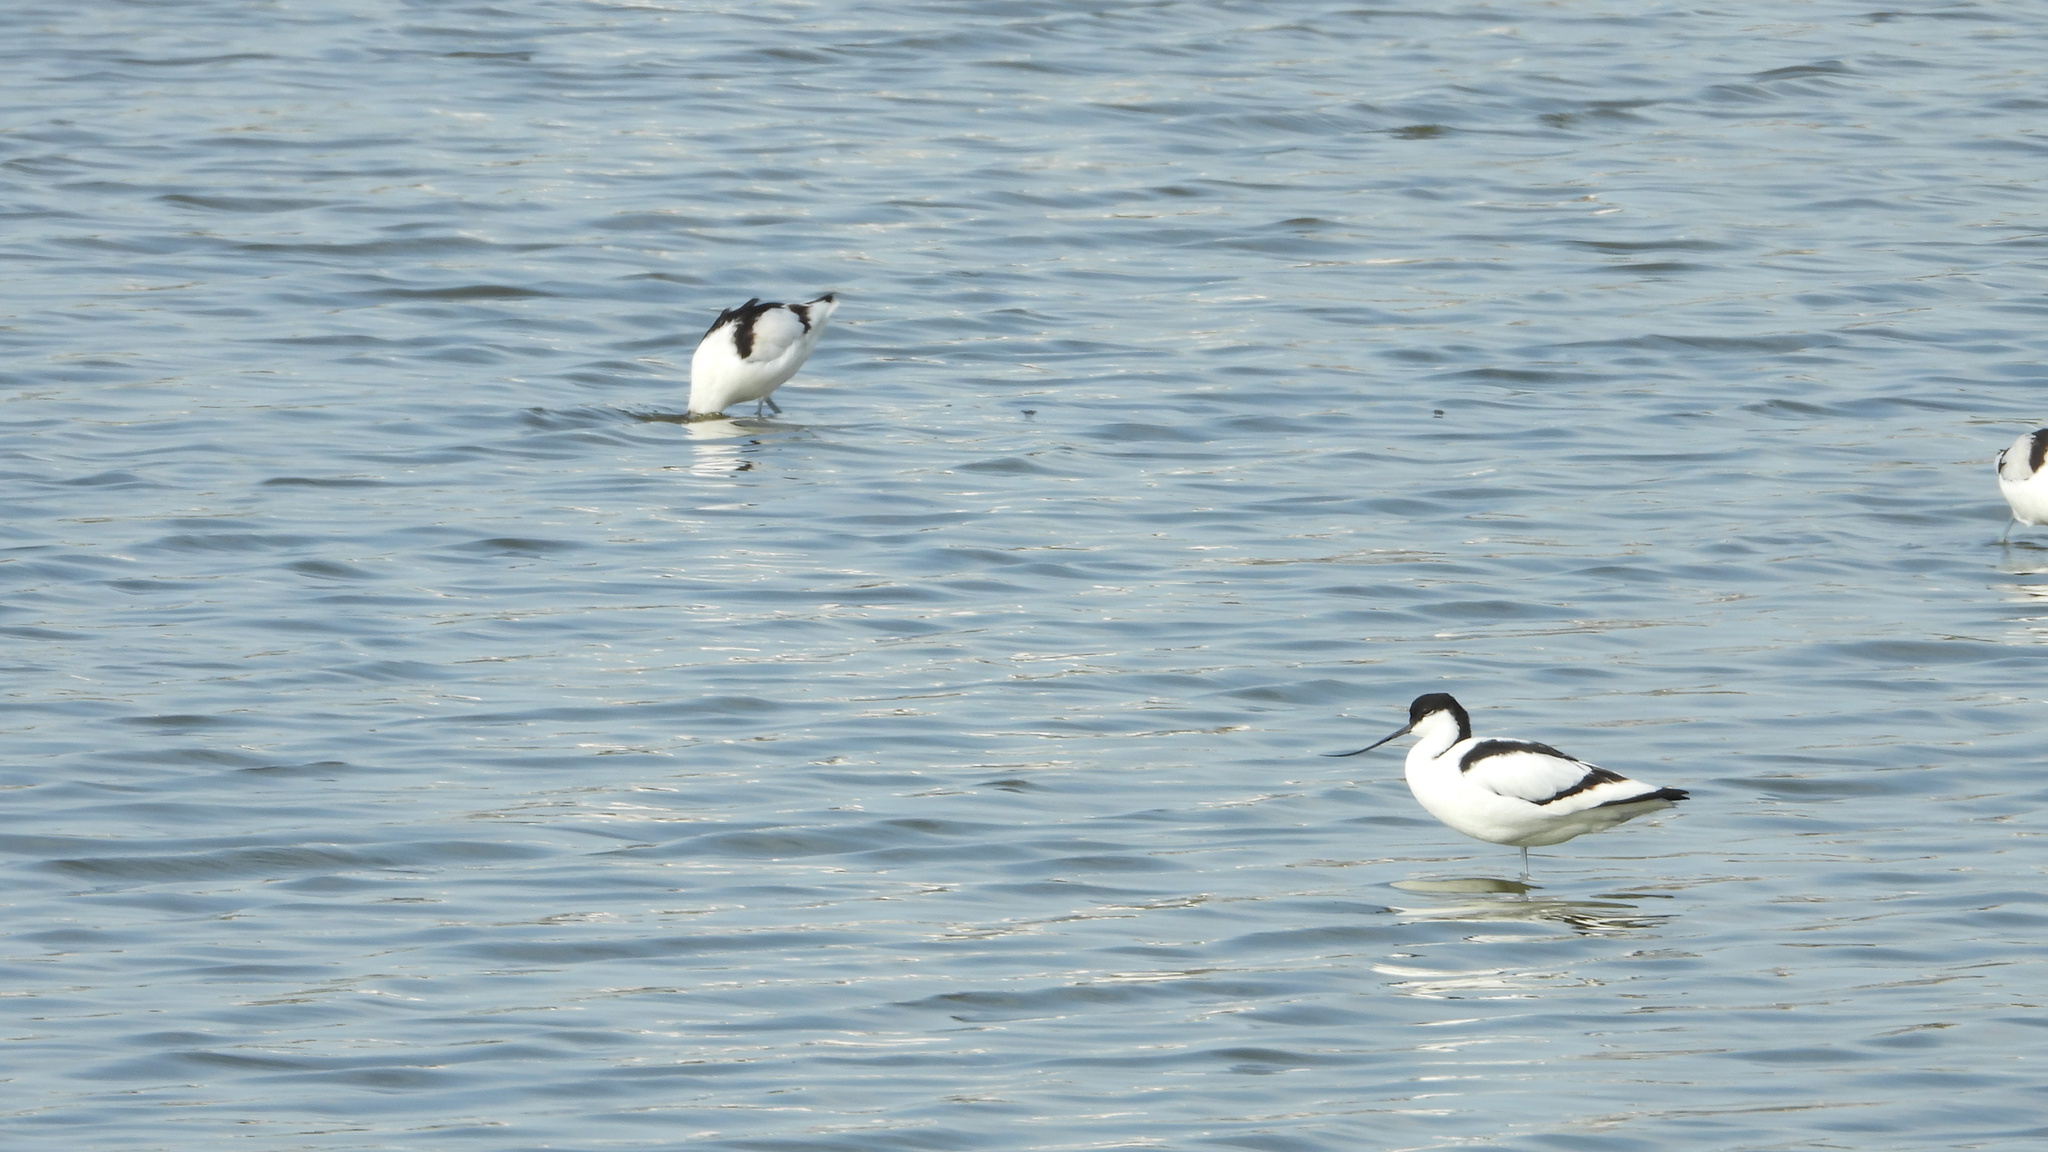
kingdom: Animalia
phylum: Chordata
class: Aves
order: Charadriiformes
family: Recurvirostridae
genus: Recurvirostra
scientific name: Recurvirostra avosetta
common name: Pied avocet
